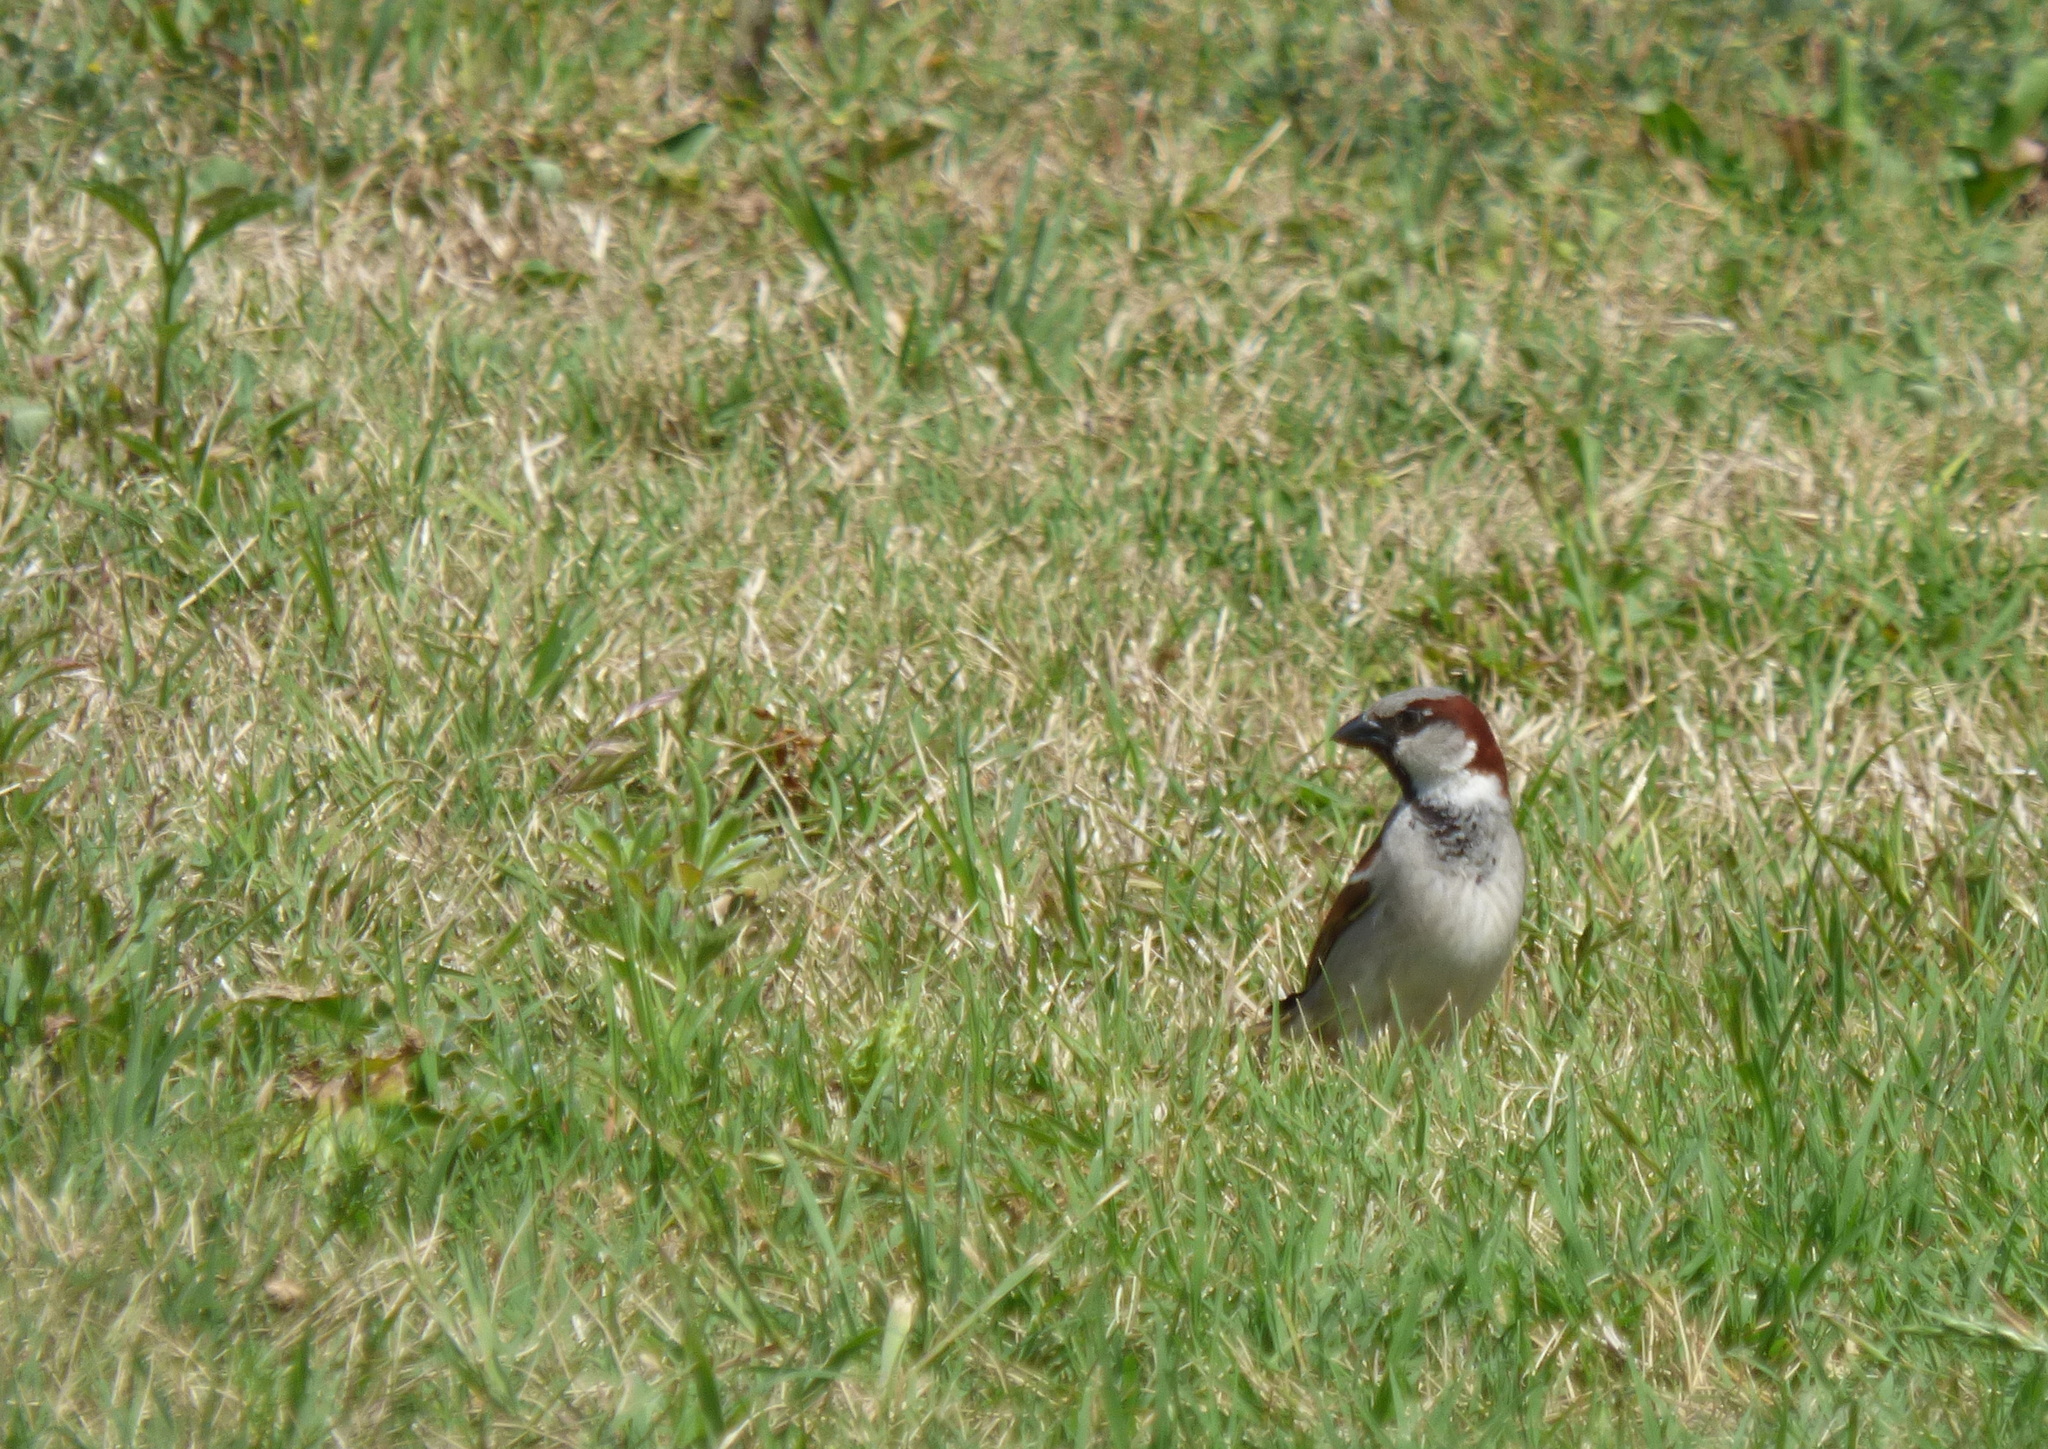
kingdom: Animalia
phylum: Chordata
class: Aves
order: Passeriformes
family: Passeridae
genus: Passer
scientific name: Passer domesticus
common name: House sparrow
